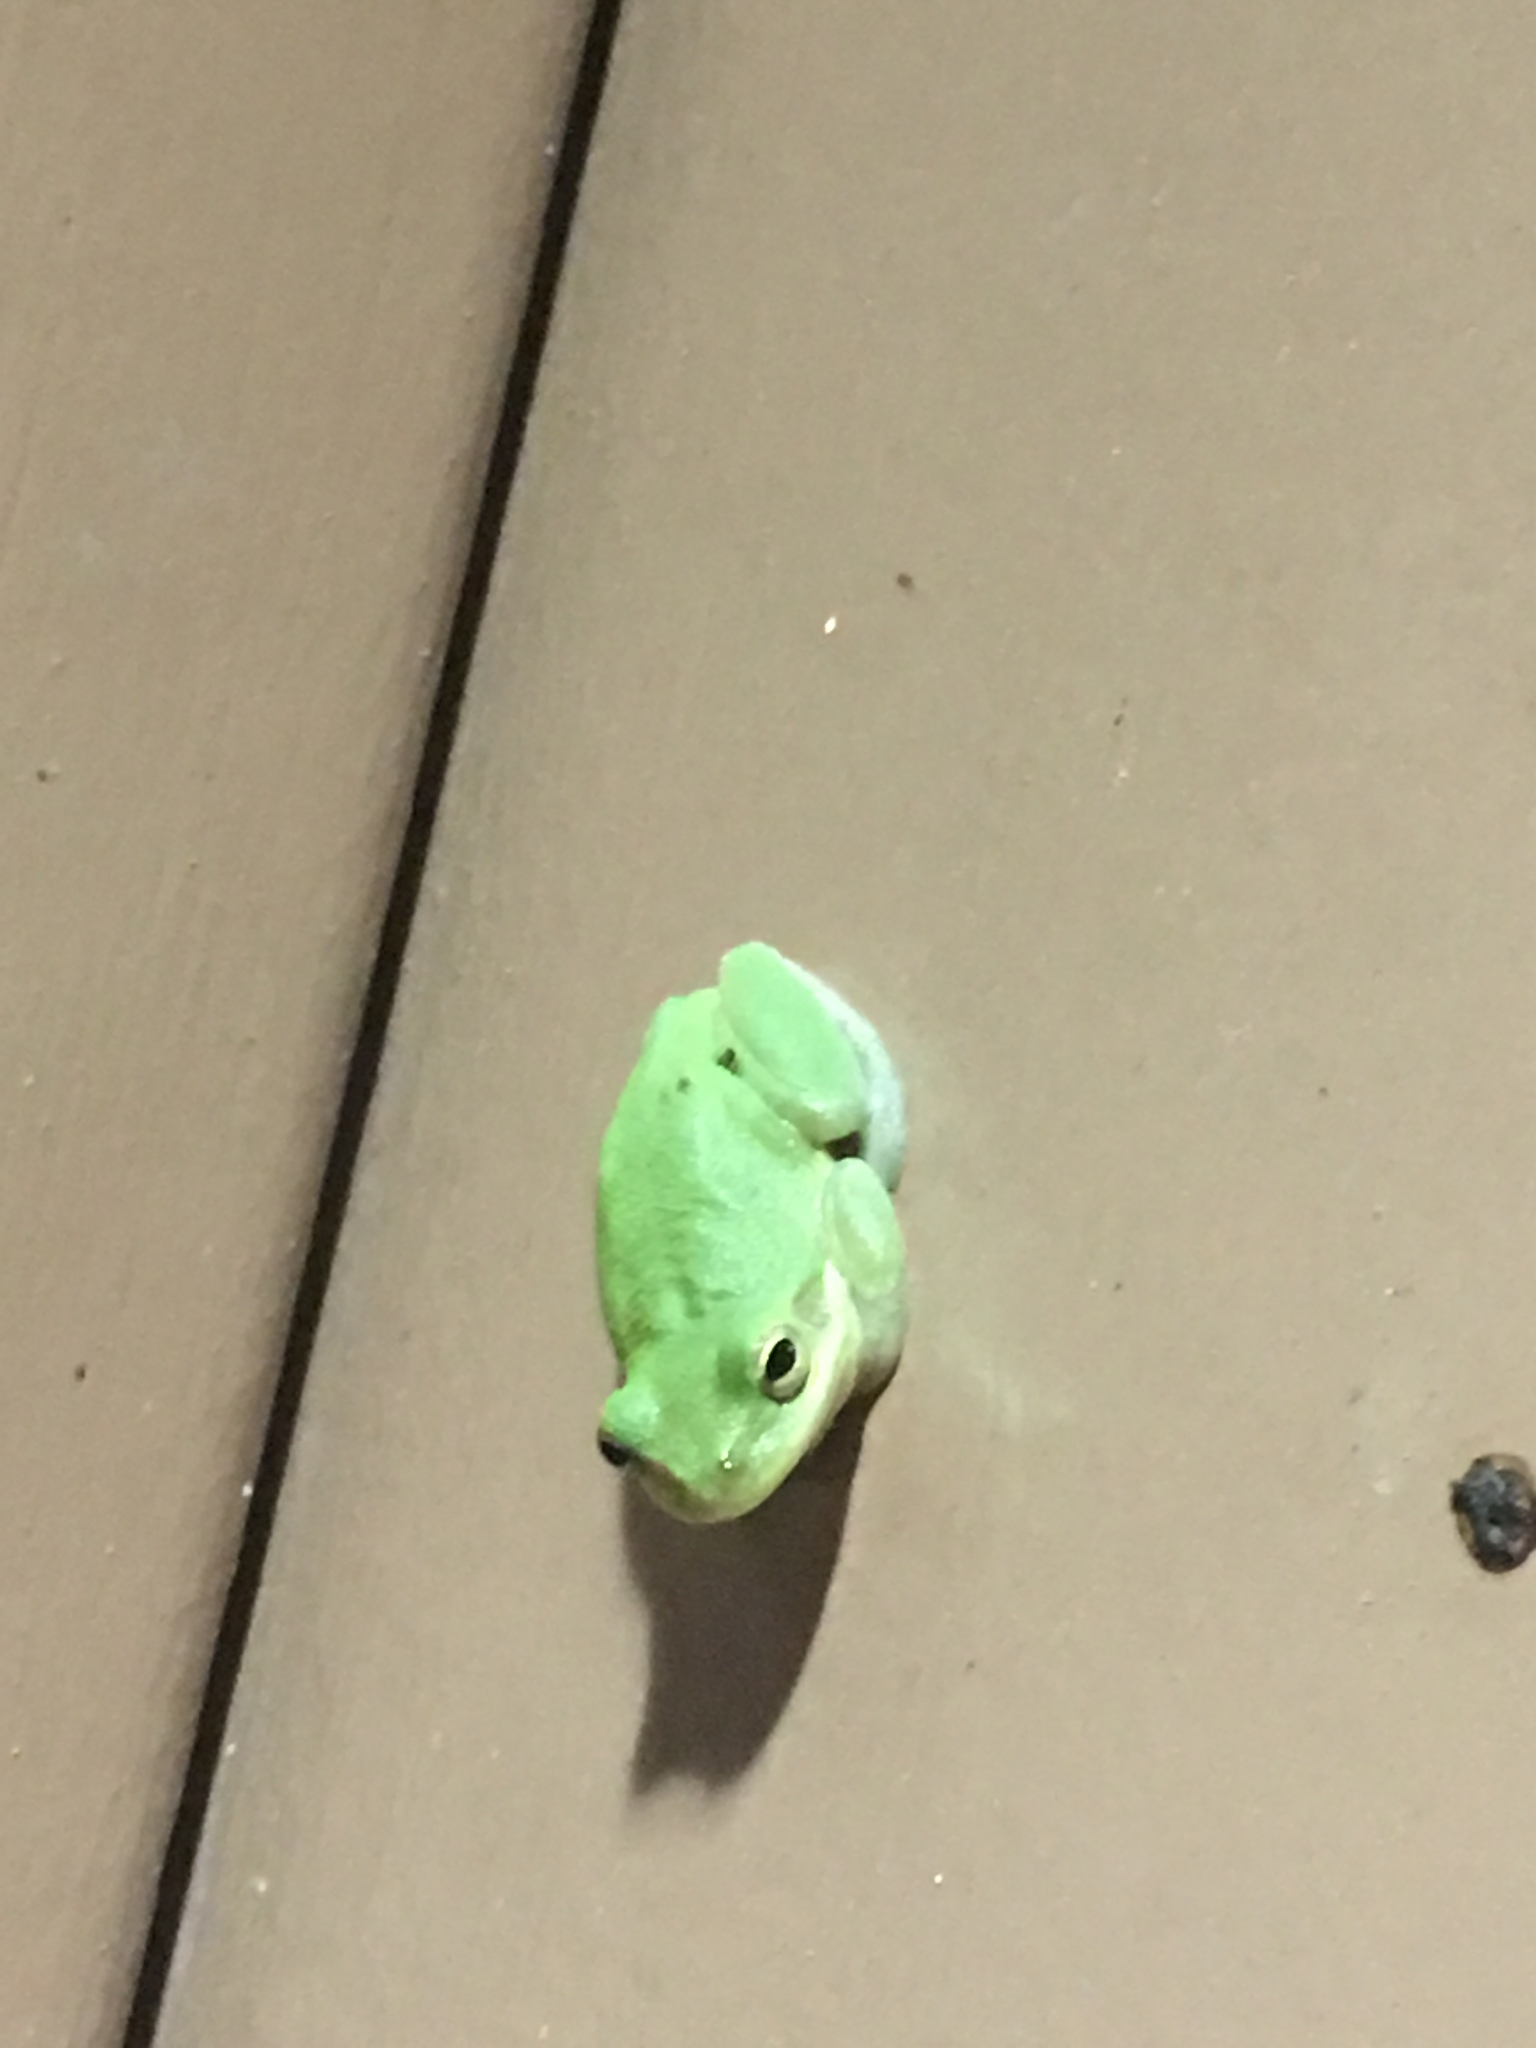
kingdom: Animalia
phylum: Chordata
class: Amphibia
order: Anura
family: Hylidae
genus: Dryophytes
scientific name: Dryophytes cinereus
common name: Green treefrog
